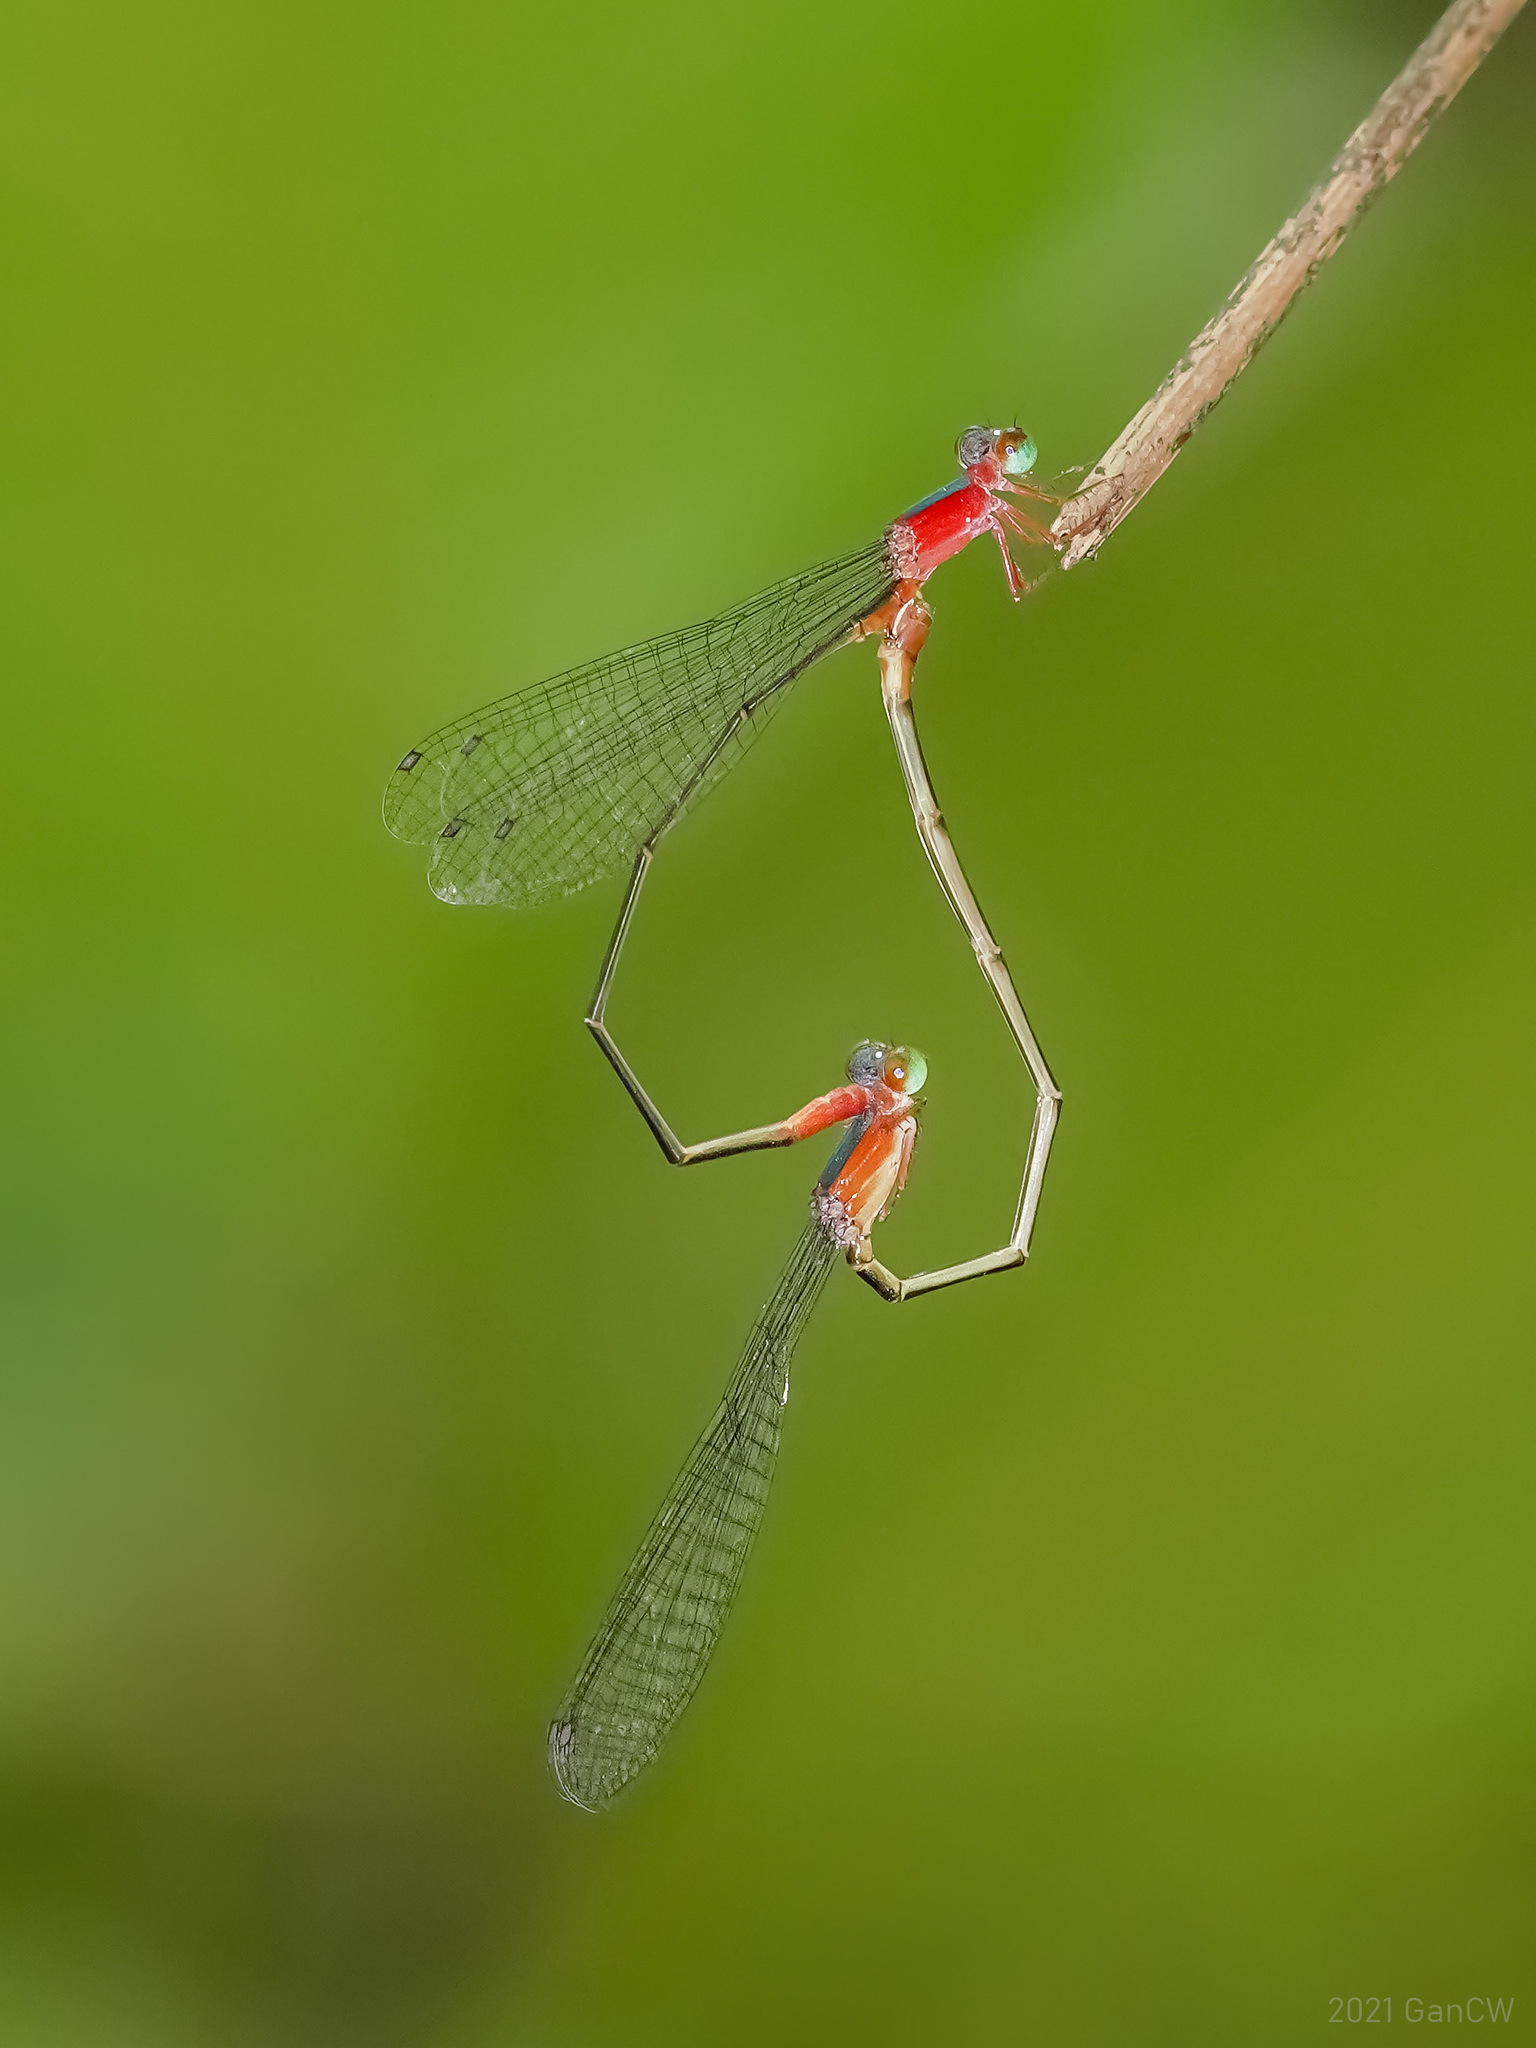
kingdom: Animalia
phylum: Arthropoda
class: Insecta
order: Odonata
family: Coenagrionidae
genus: Teinobasis
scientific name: Teinobasis ruficollis
